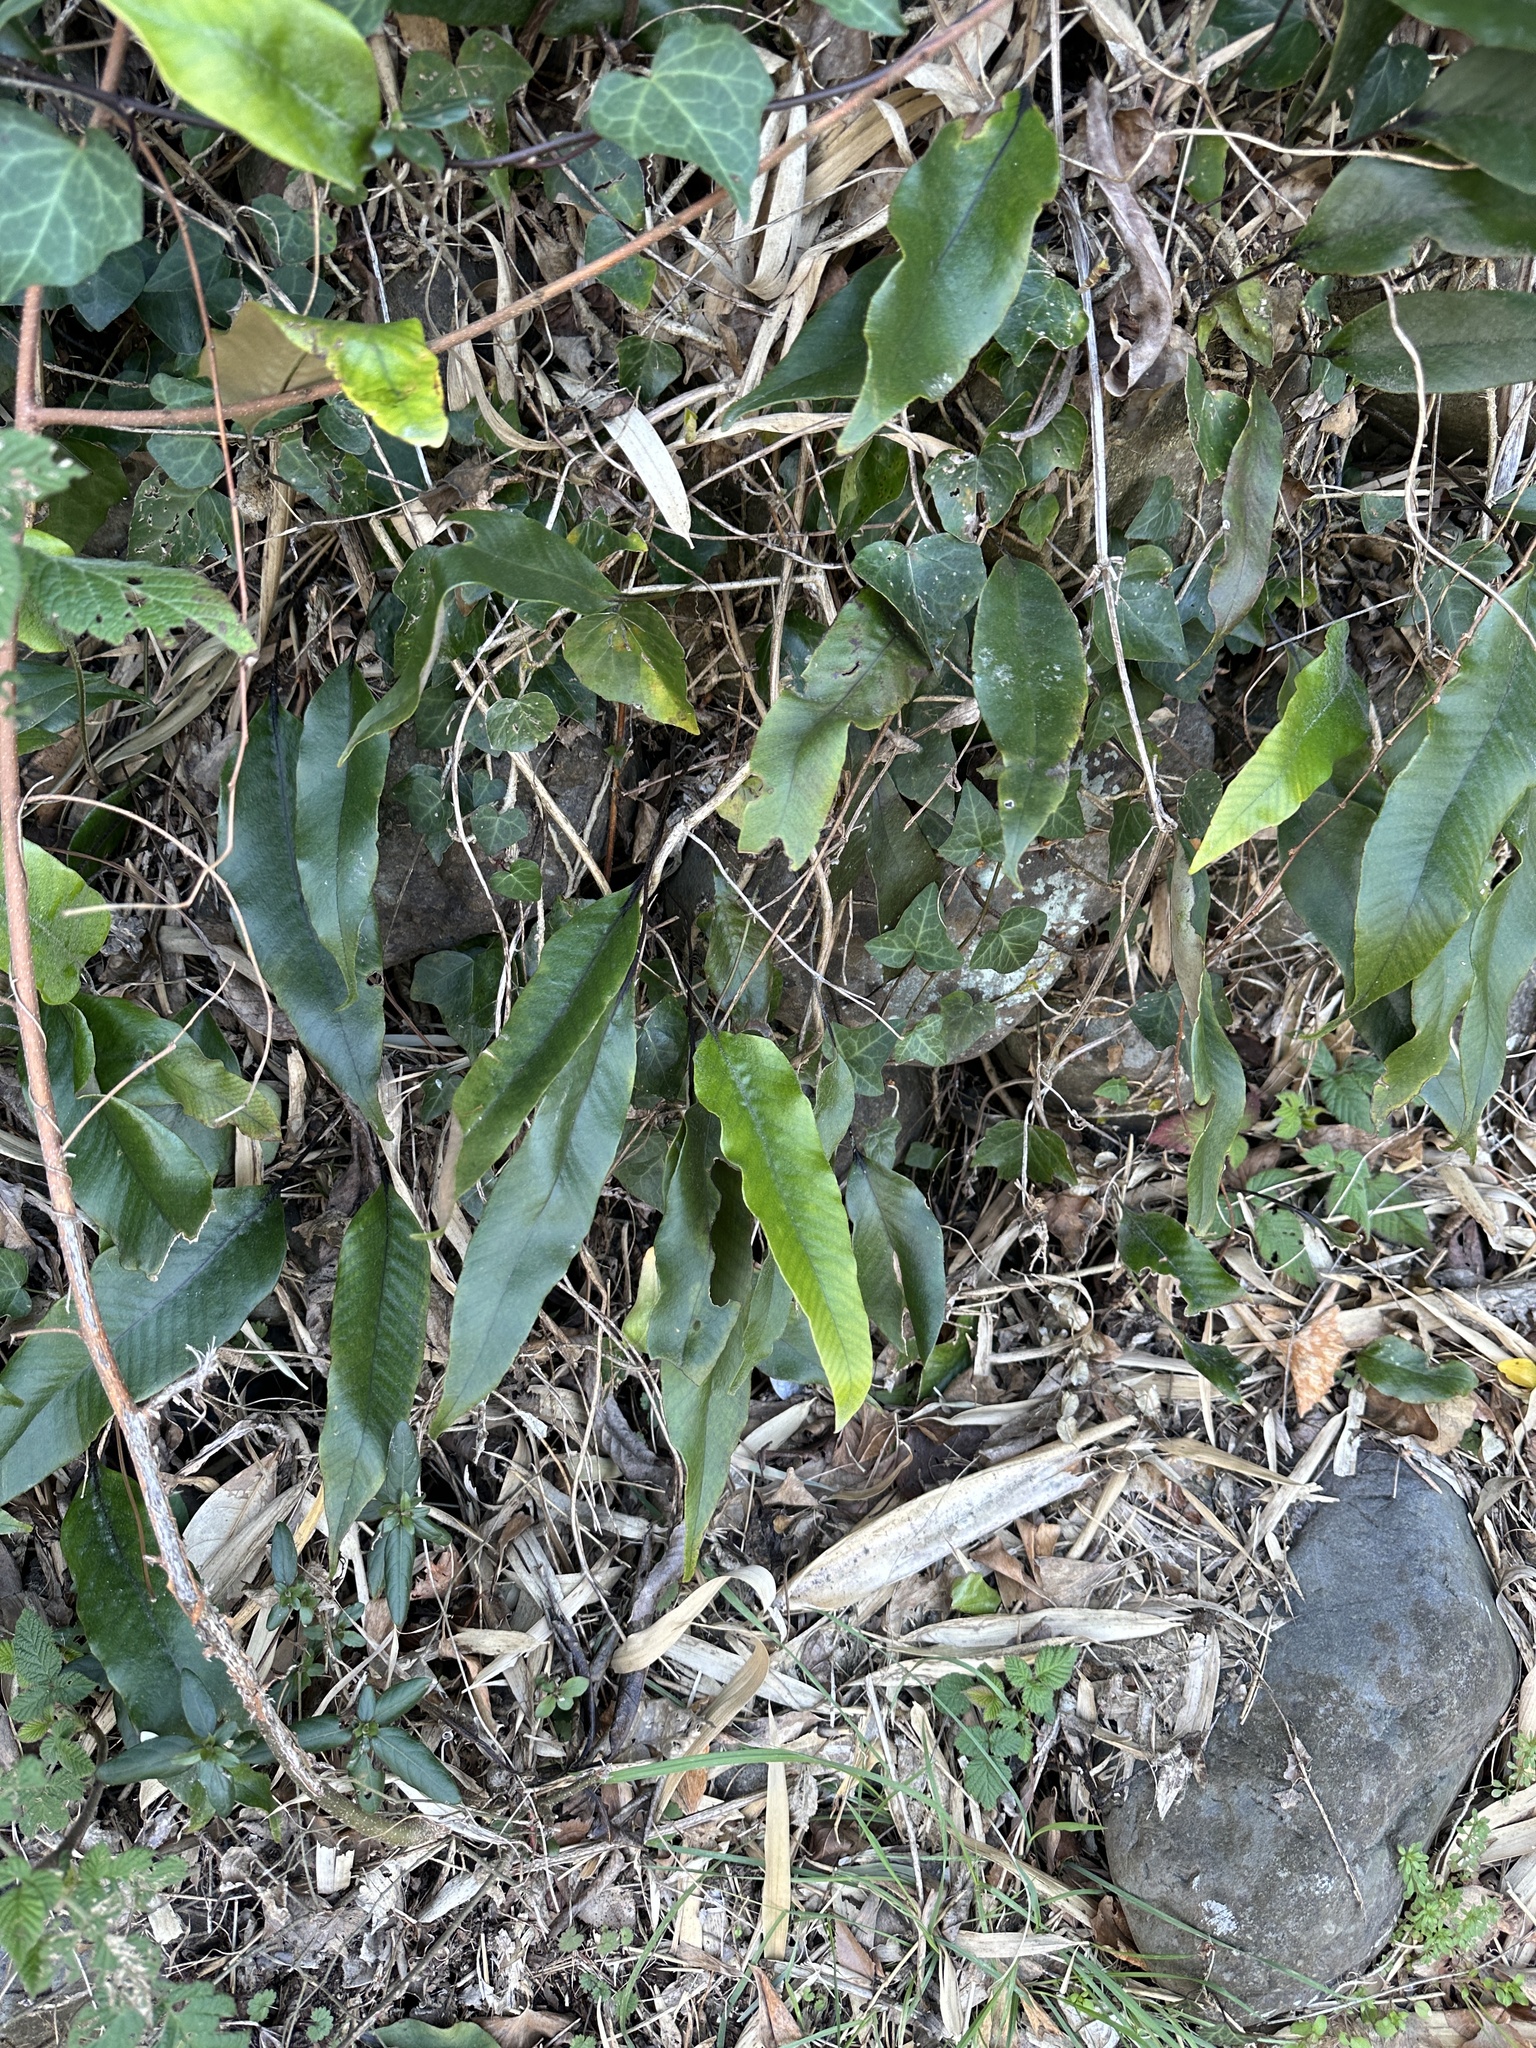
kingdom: Plantae
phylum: Tracheophyta
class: Polypodiopsida
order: Polypodiales
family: Polypodiaceae
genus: Pyrrosia
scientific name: Pyrrosia lingua
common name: Felt fern
